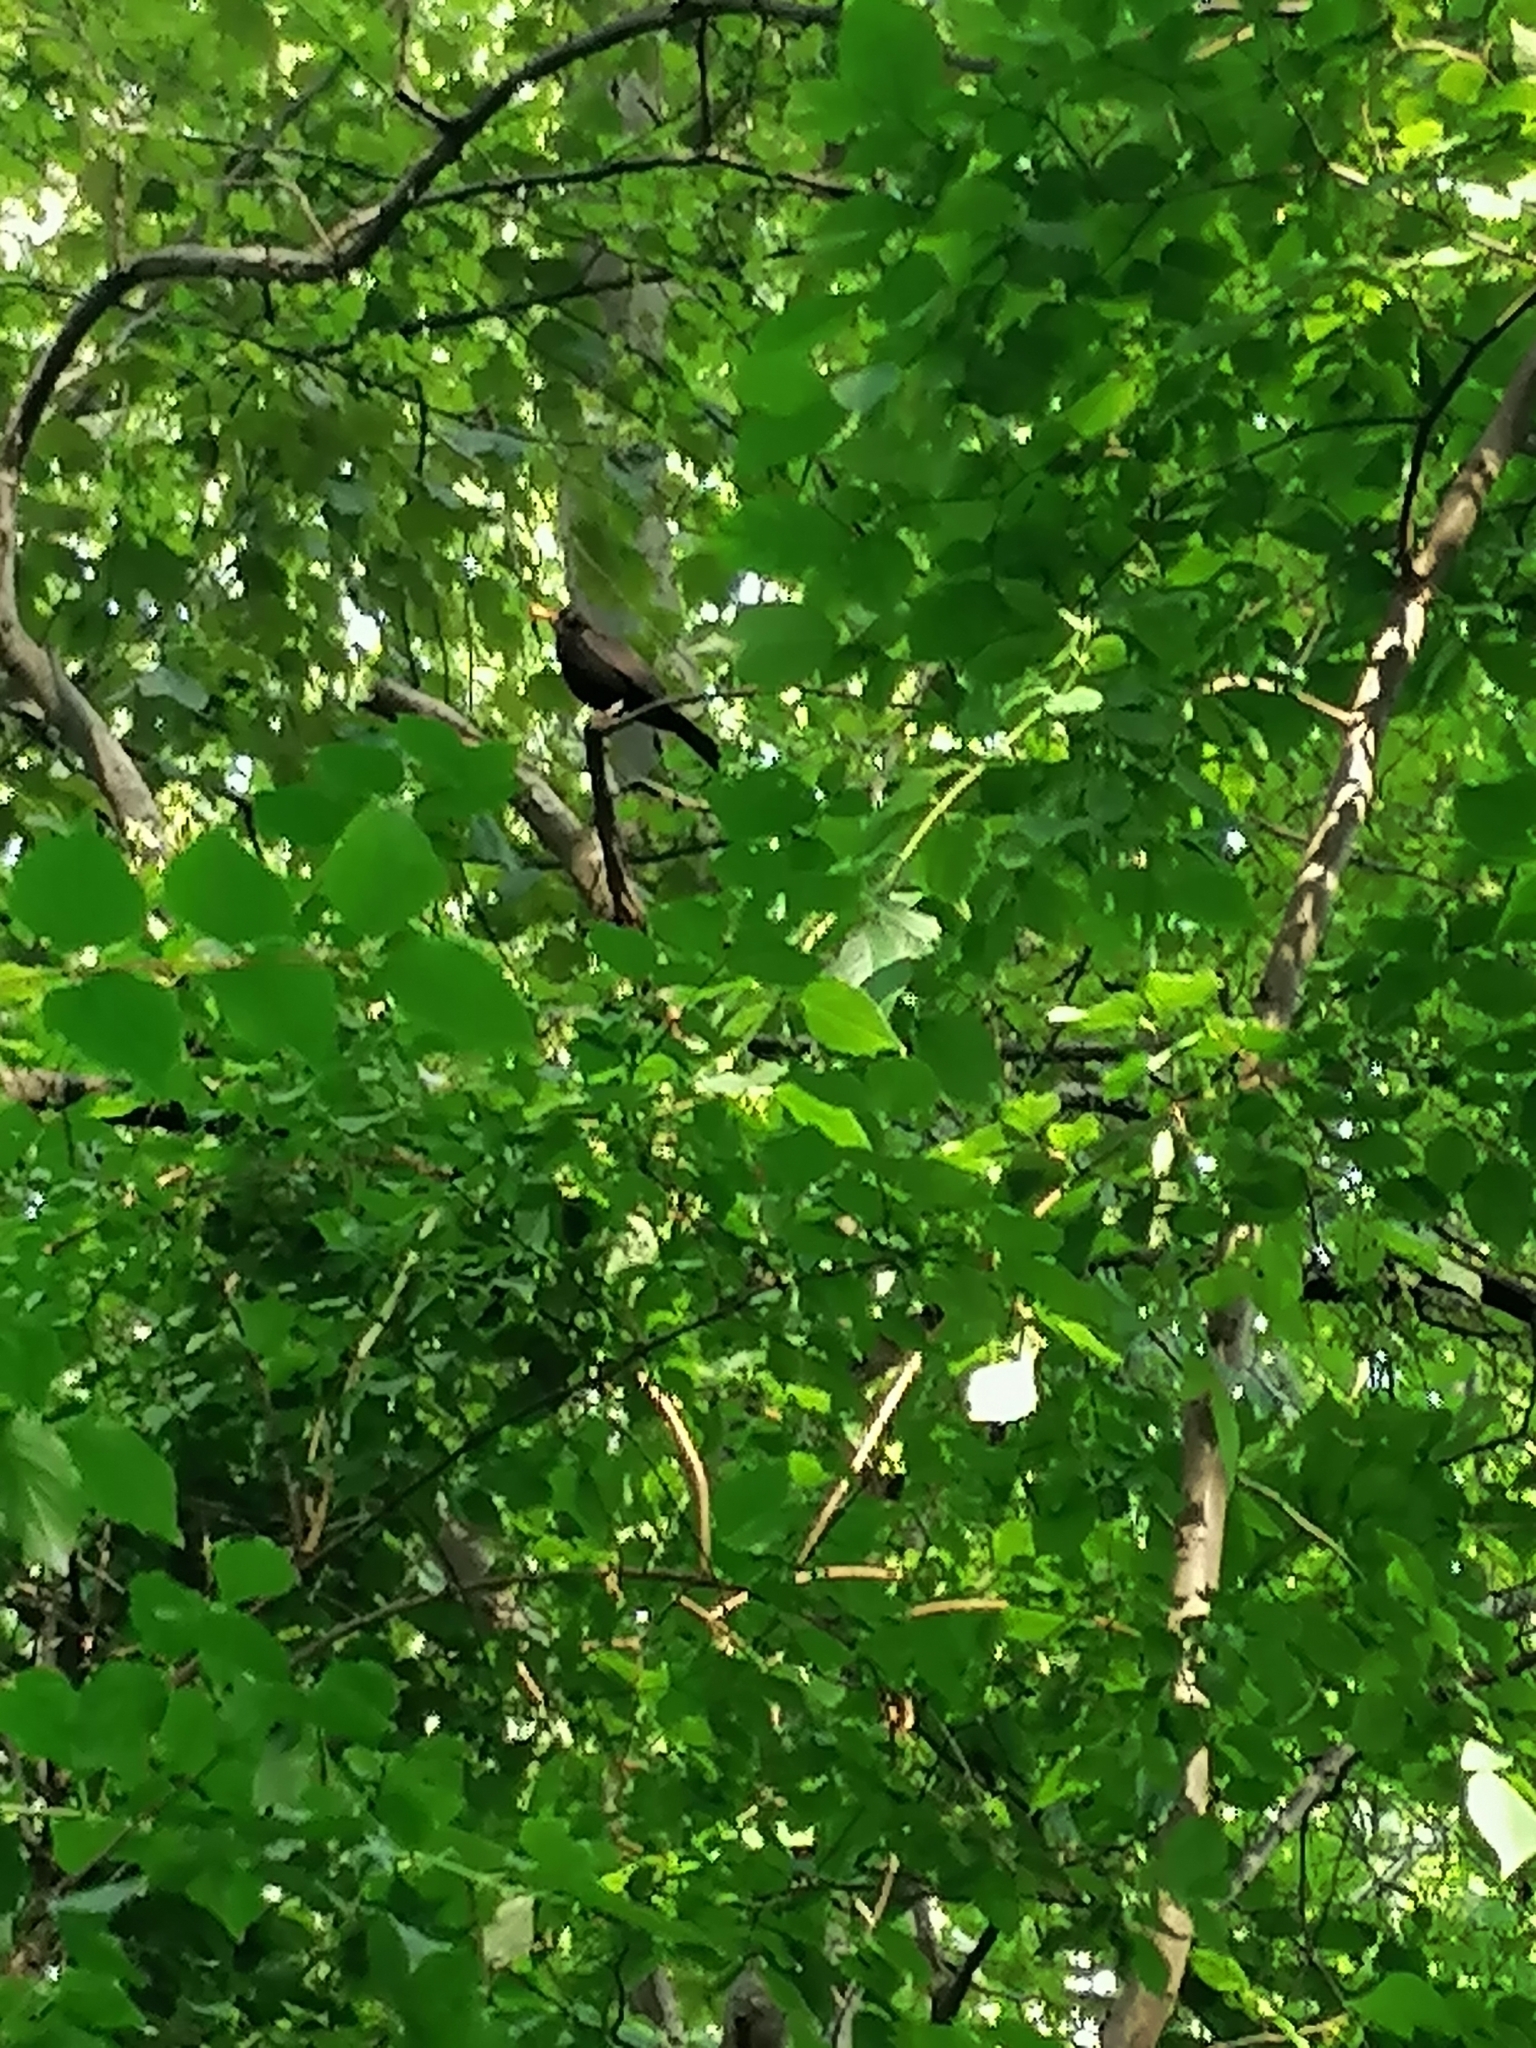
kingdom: Animalia
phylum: Chordata
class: Aves
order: Passeriformes
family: Turdidae
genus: Turdus
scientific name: Turdus merula
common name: Common blackbird
